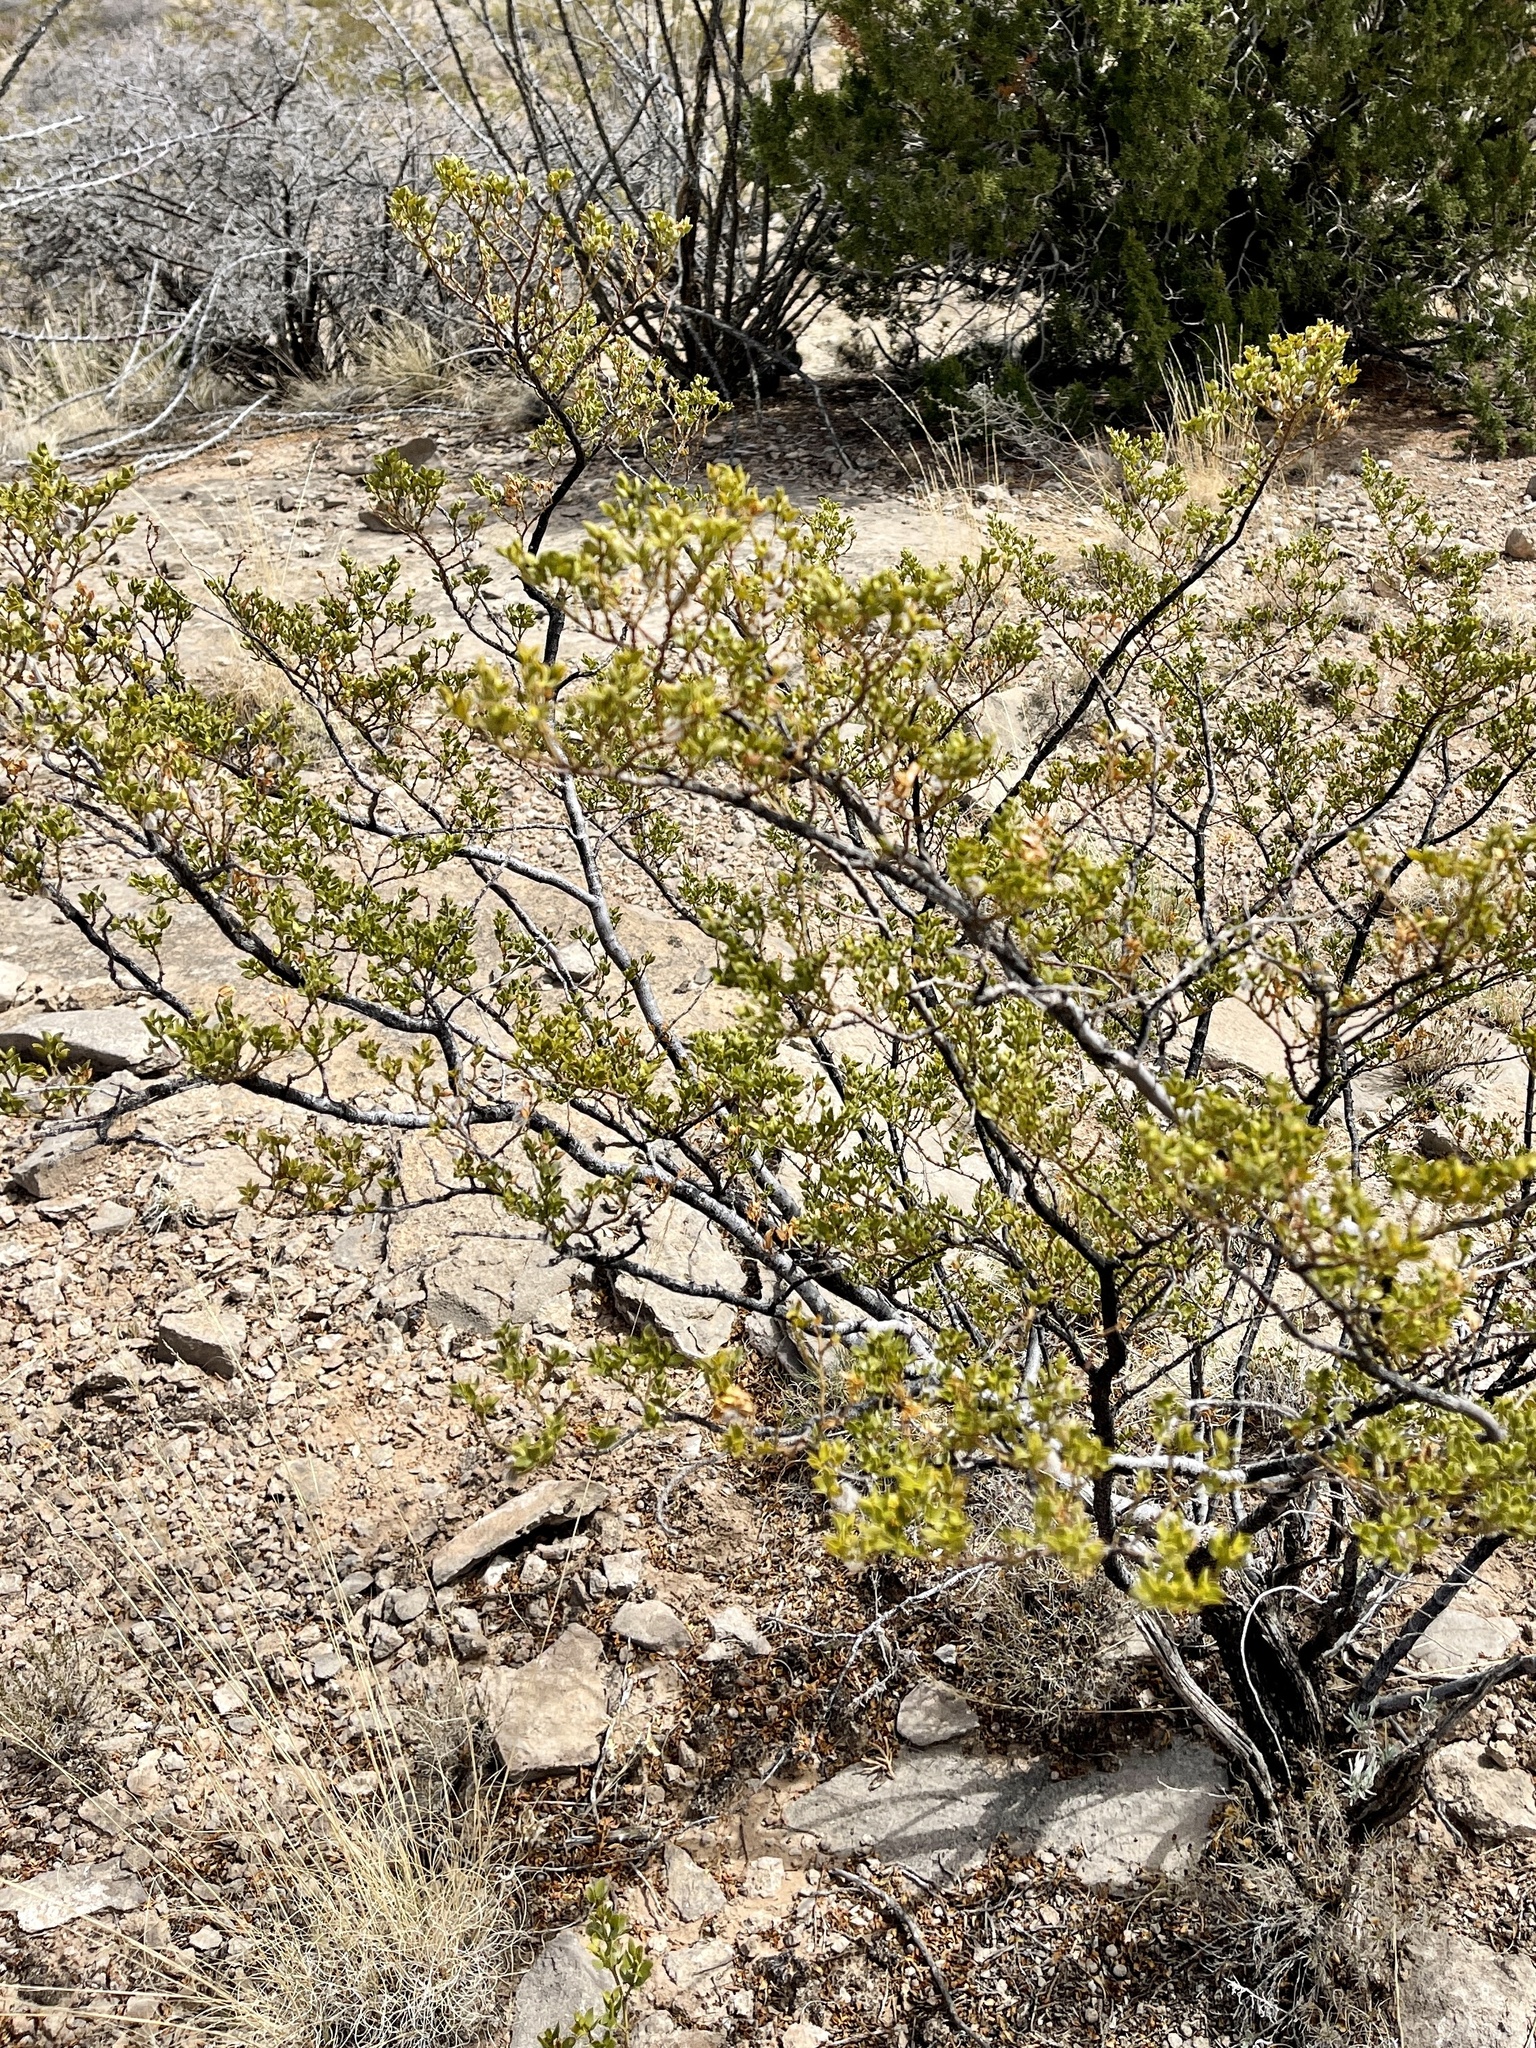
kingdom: Plantae
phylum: Tracheophyta
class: Magnoliopsida
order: Zygophyllales
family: Zygophyllaceae
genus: Larrea
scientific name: Larrea tridentata
